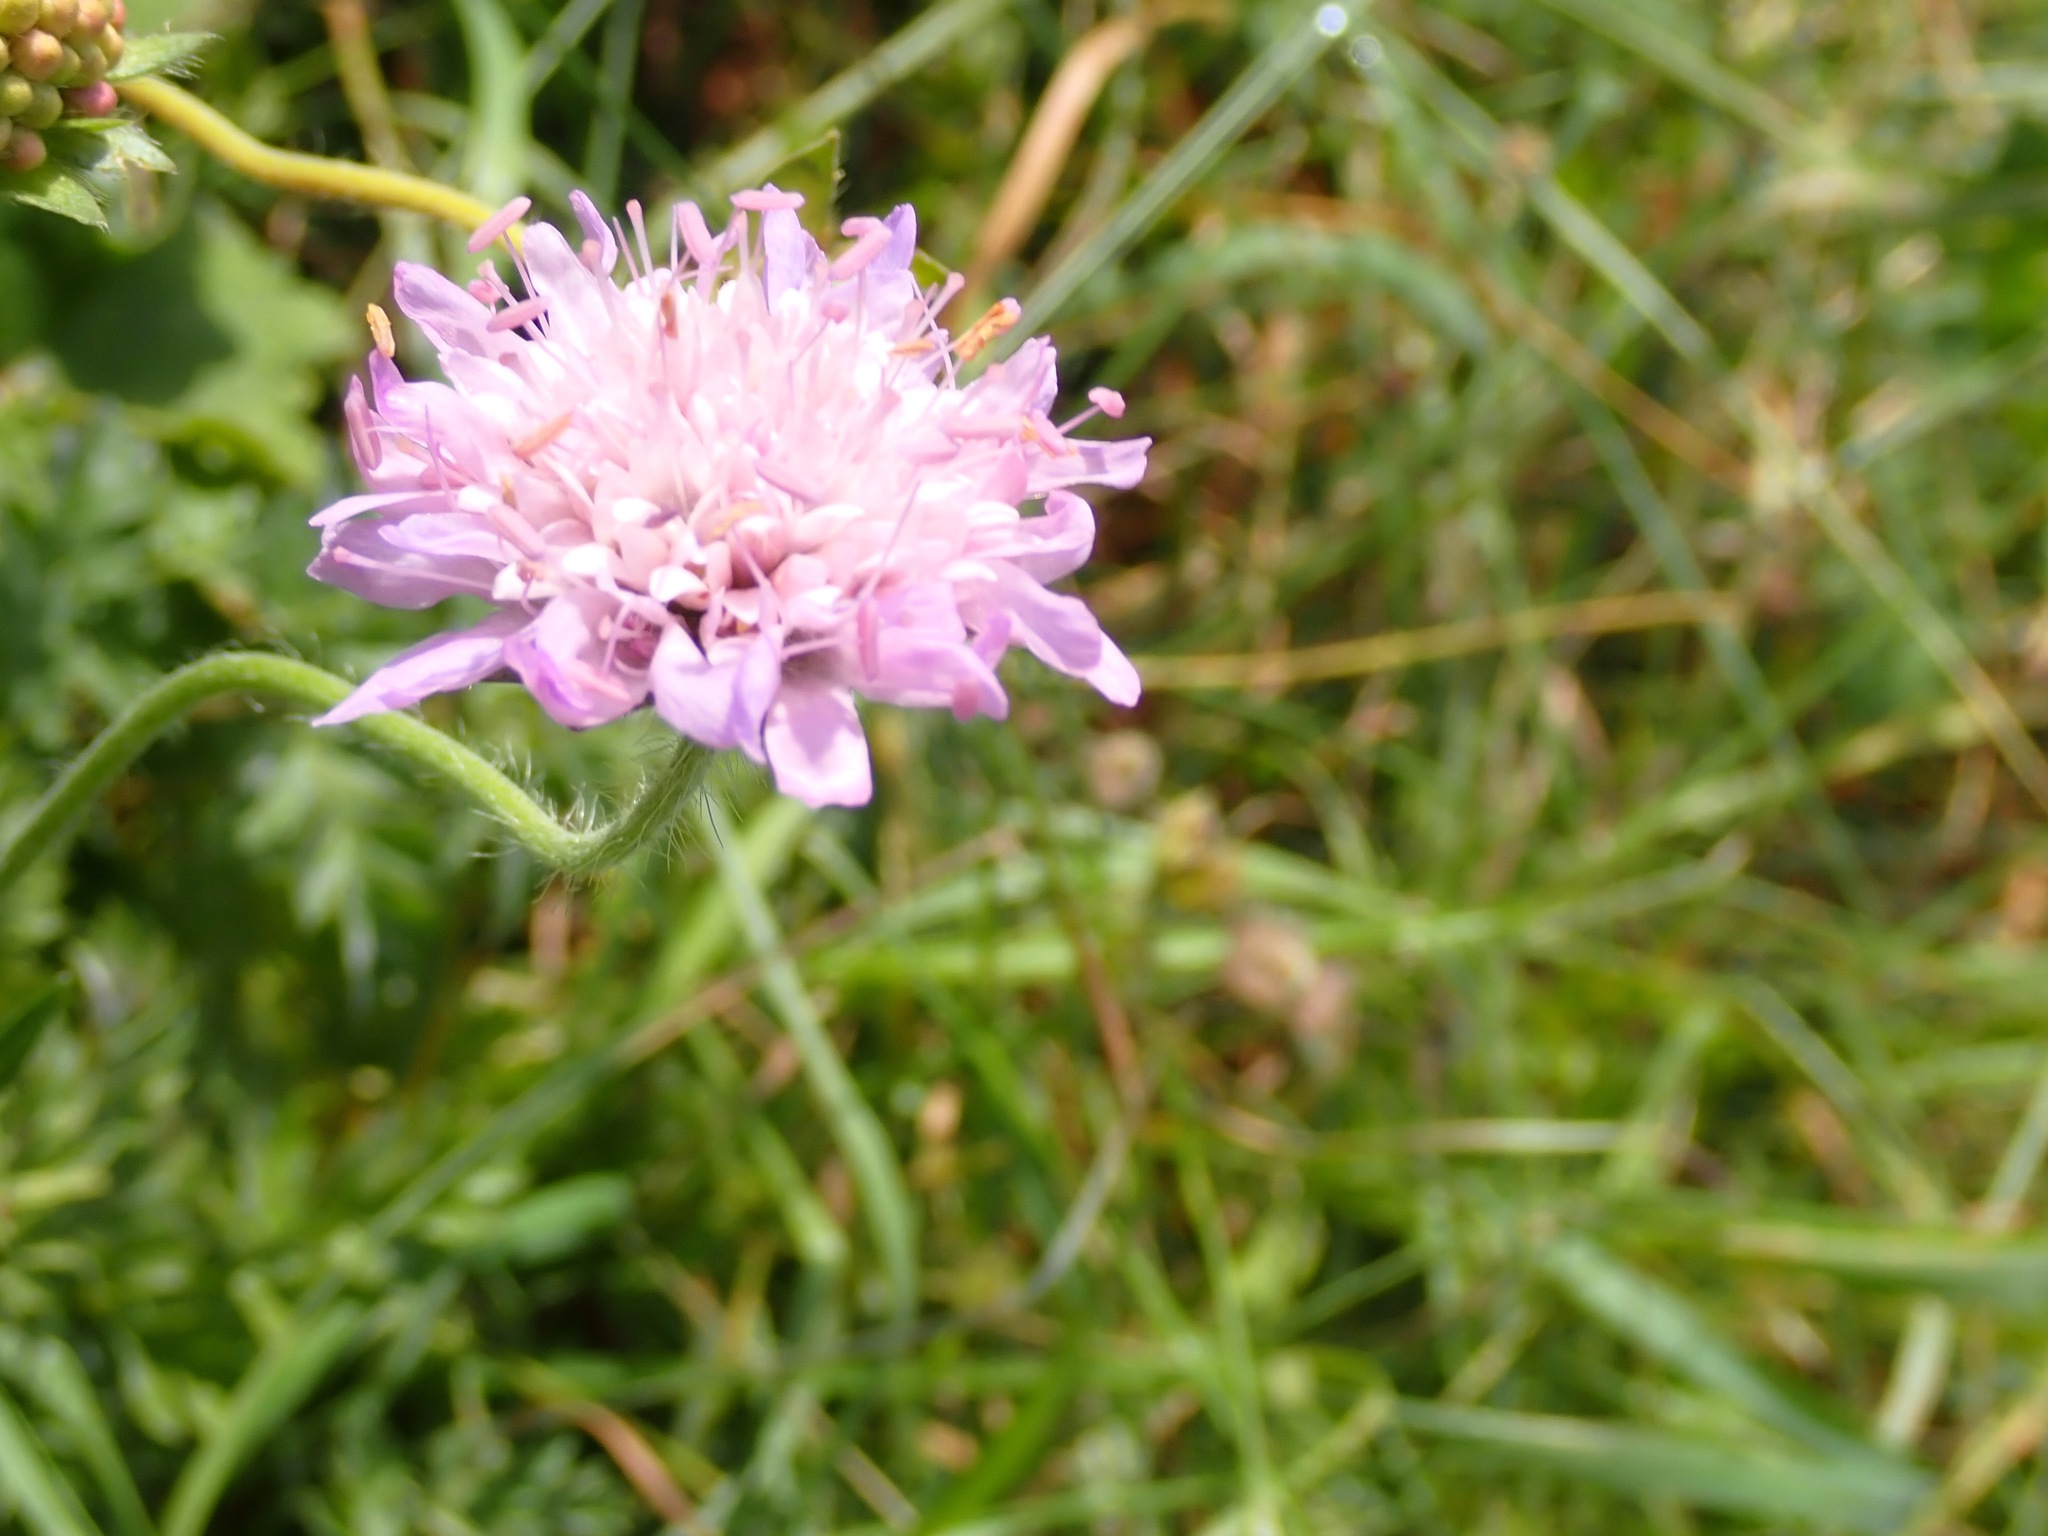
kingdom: Plantae
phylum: Tracheophyta
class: Magnoliopsida
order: Dipsacales
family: Caprifoliaceae
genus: Knautia
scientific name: Knautia arvensis
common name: Field scabiosa
